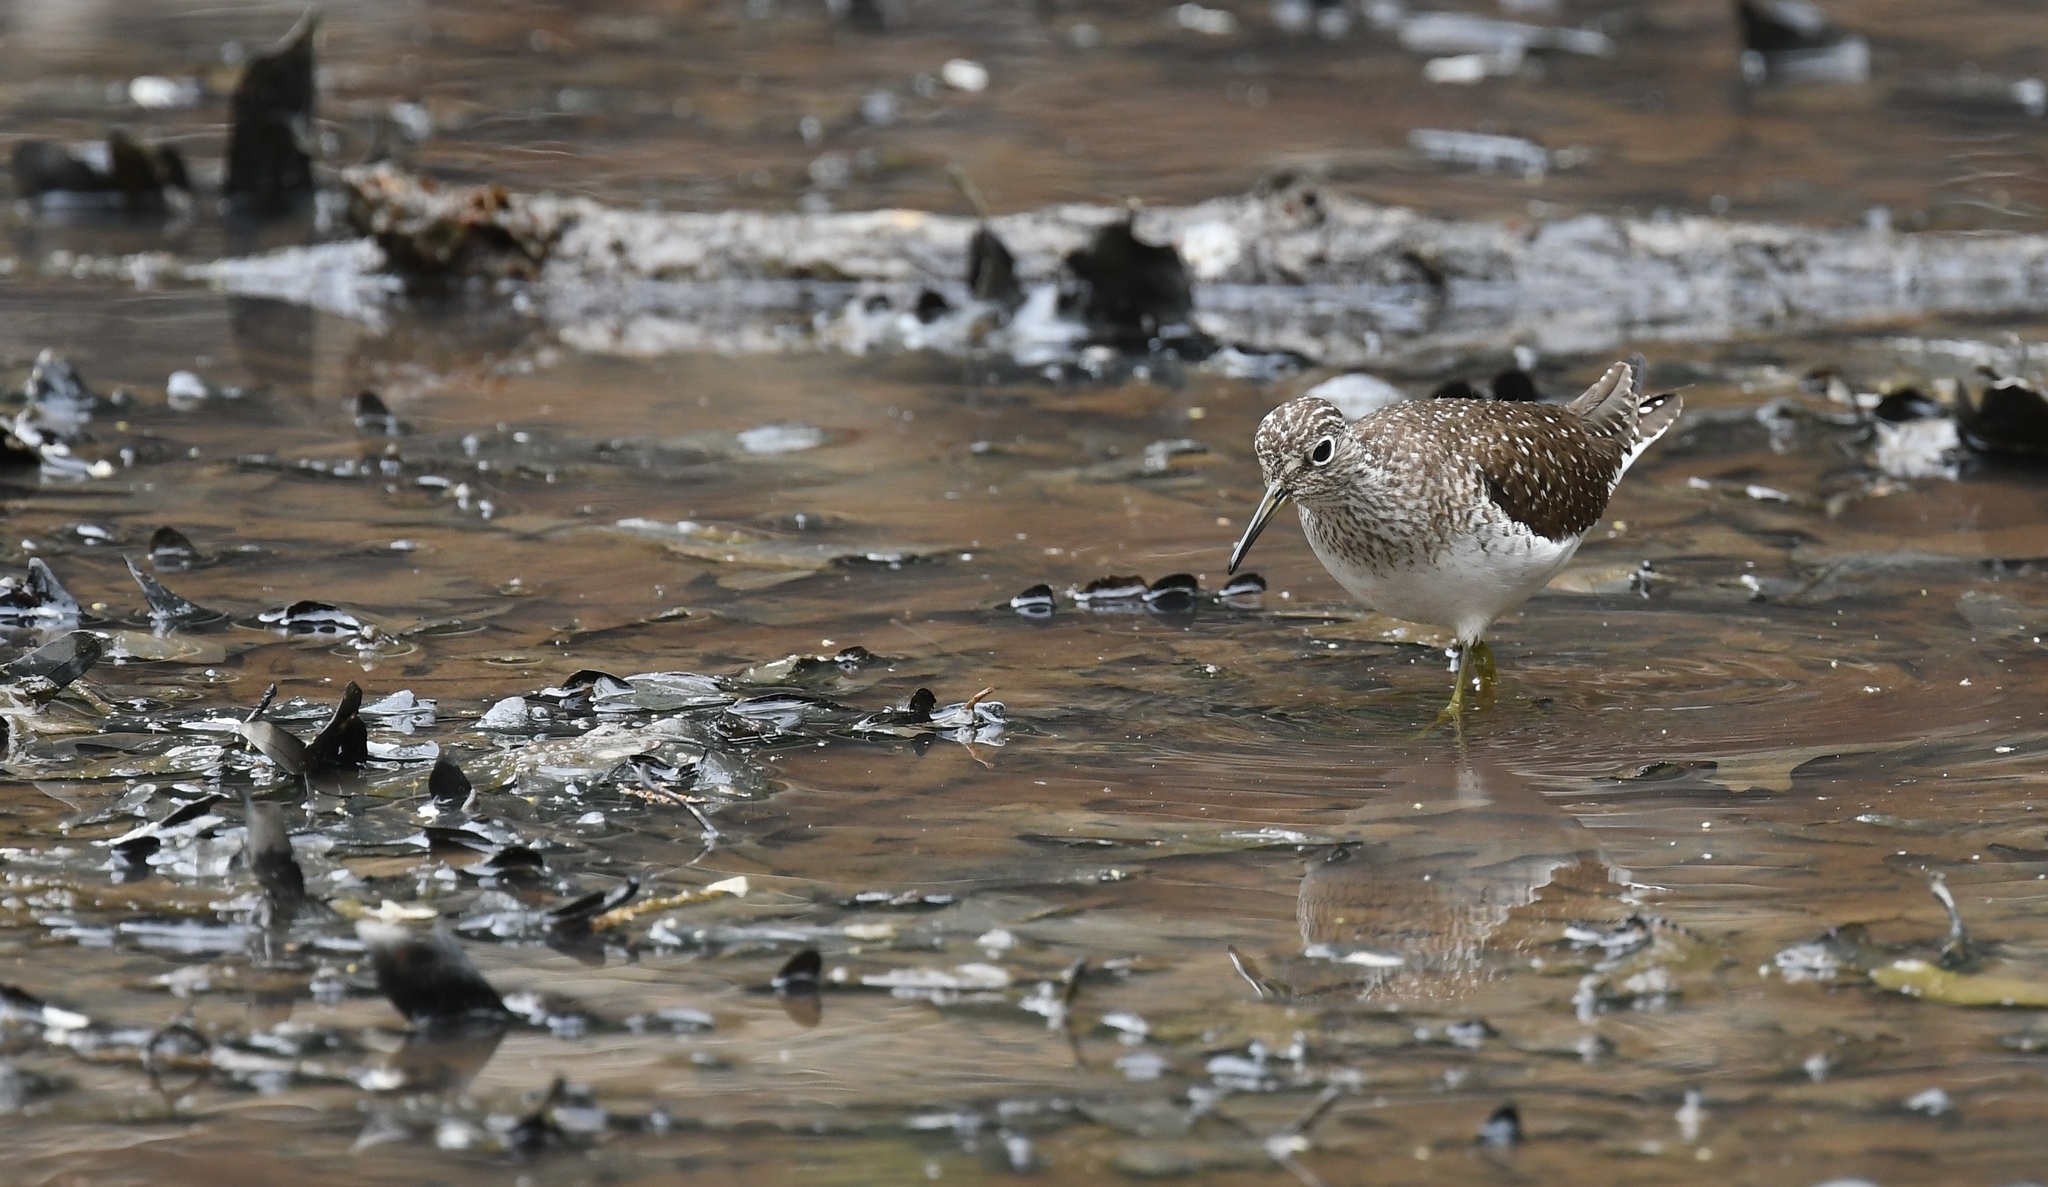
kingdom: Animalia
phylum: Chordata
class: Aves
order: Charadriiformes
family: Scolopacidae
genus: Tringa
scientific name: Tringa solitaria
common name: Solitary sandpiper
